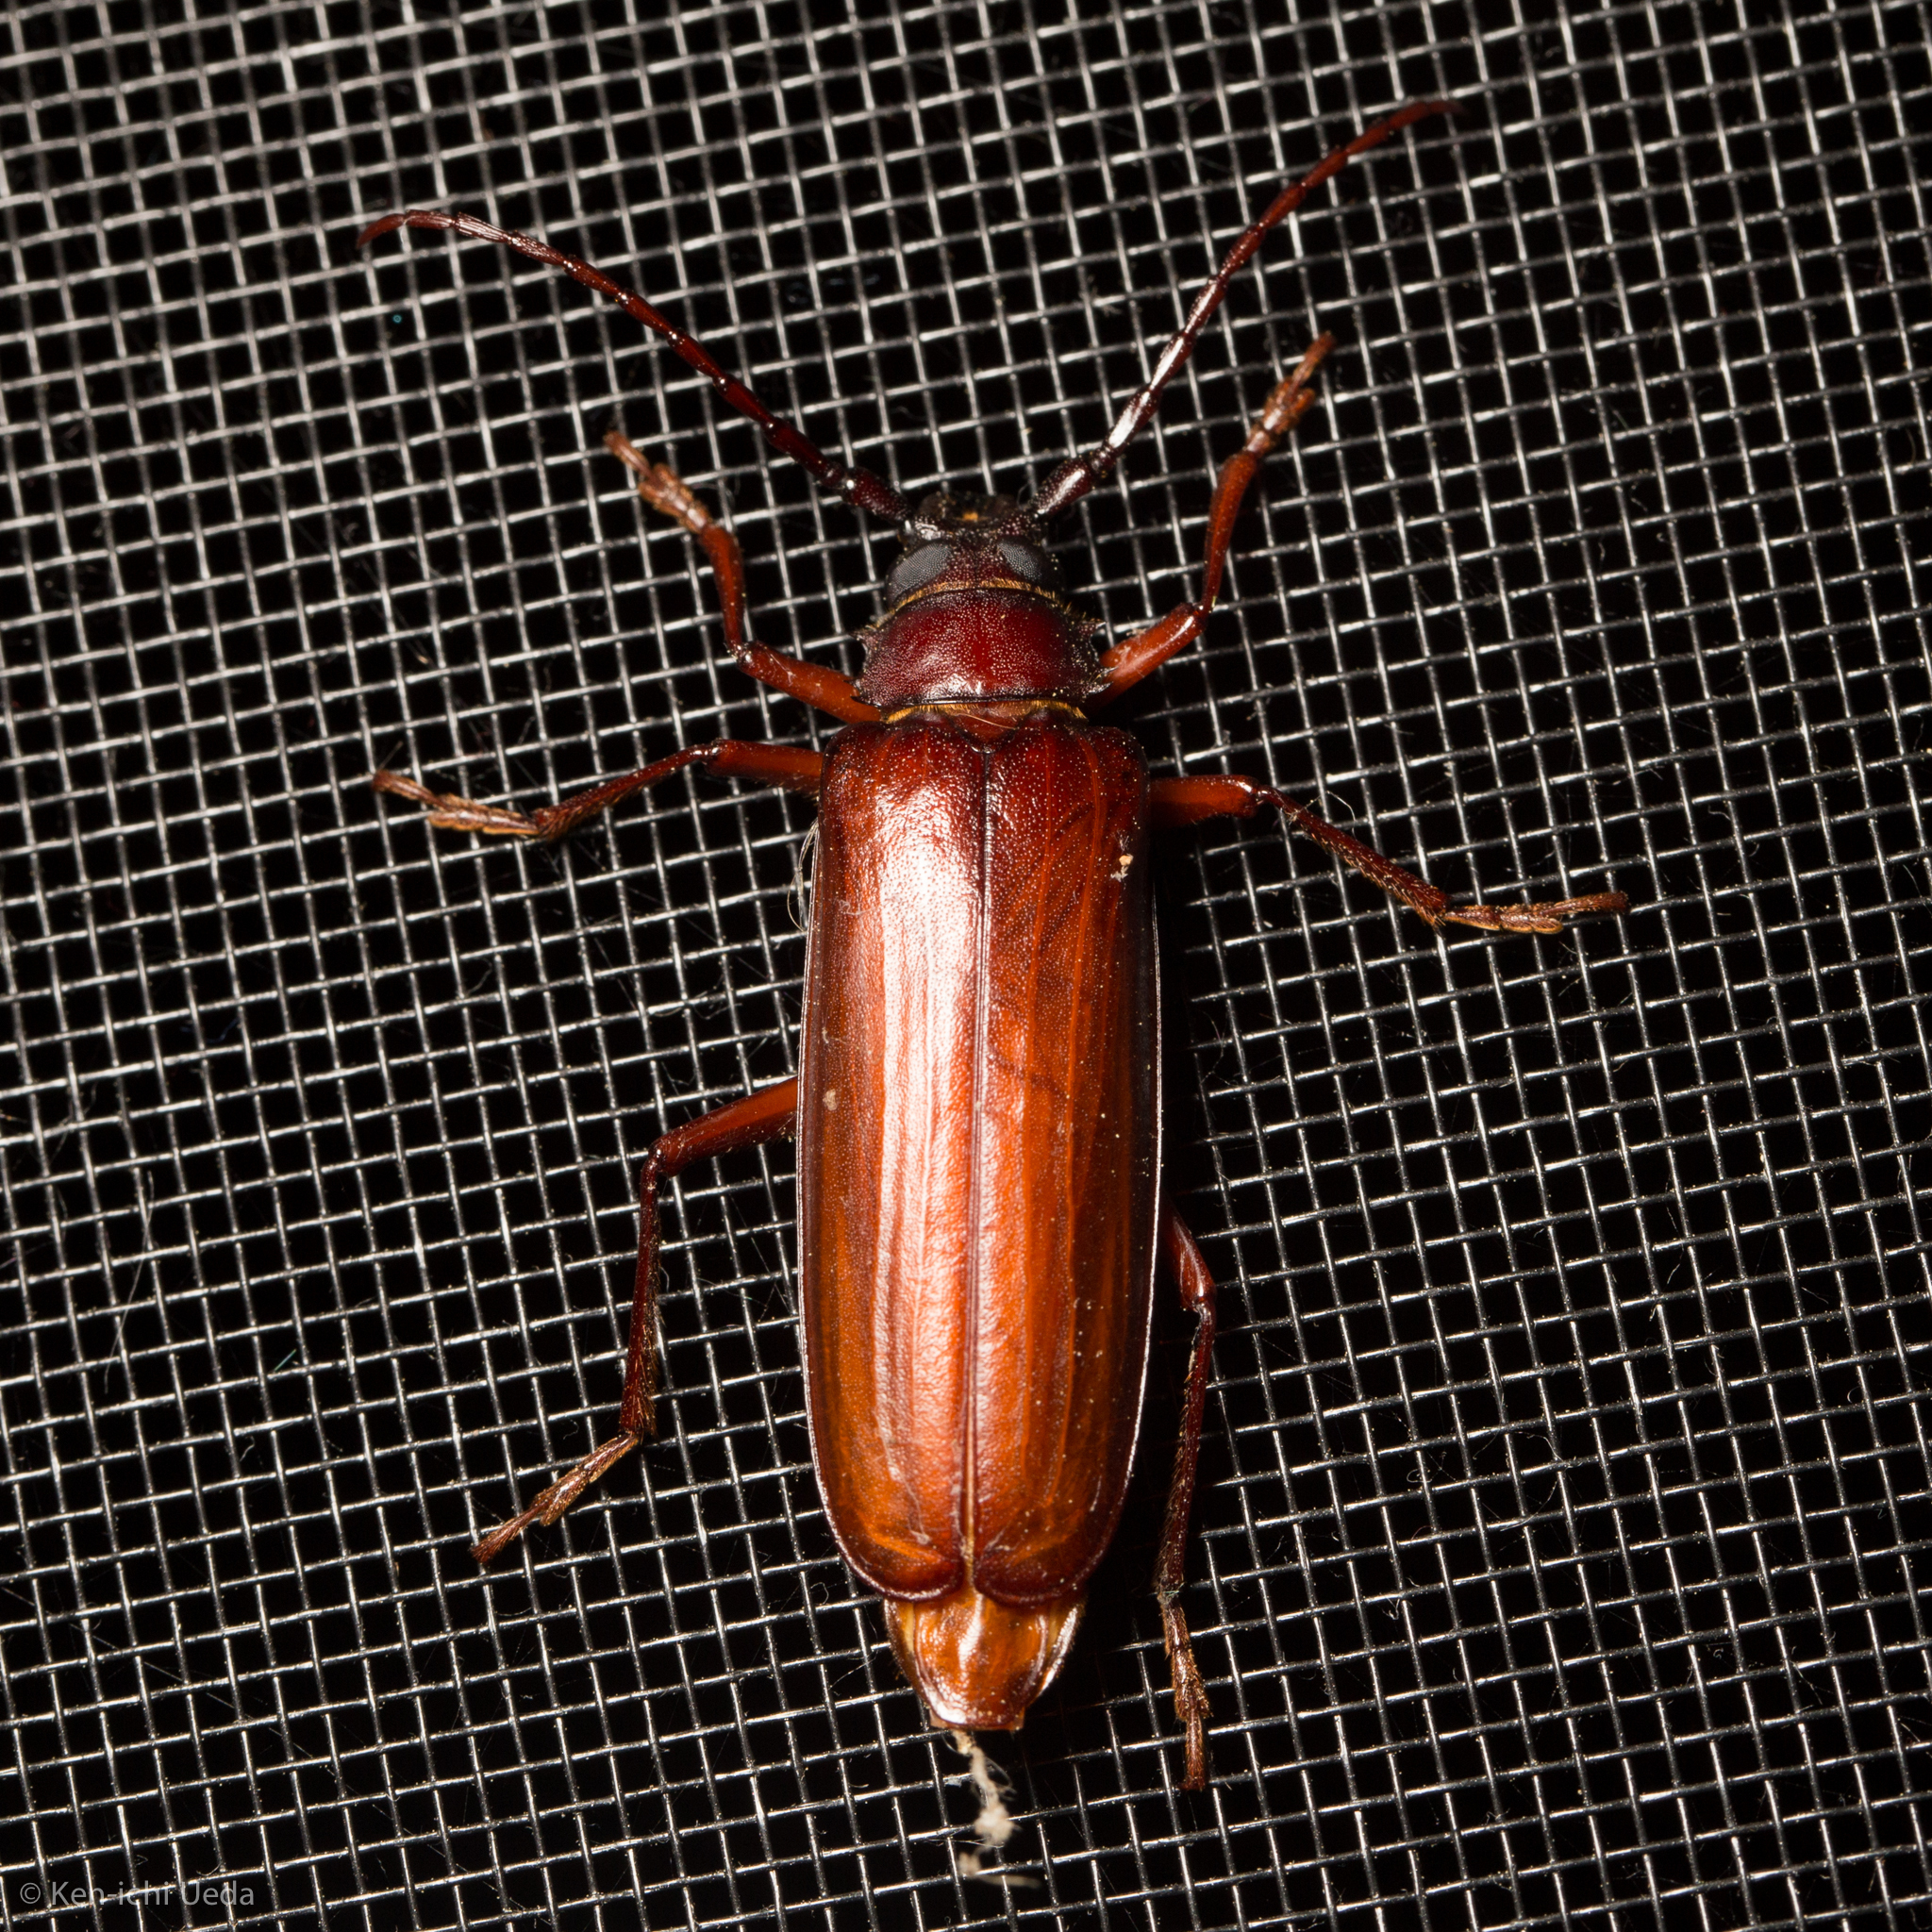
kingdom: Animalia
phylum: Arthropoda
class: Insecta
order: Coleoptera
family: Cerambycidae
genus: Orthosoma
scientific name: Orthosoma brunneum
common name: Brown prionid beetle
